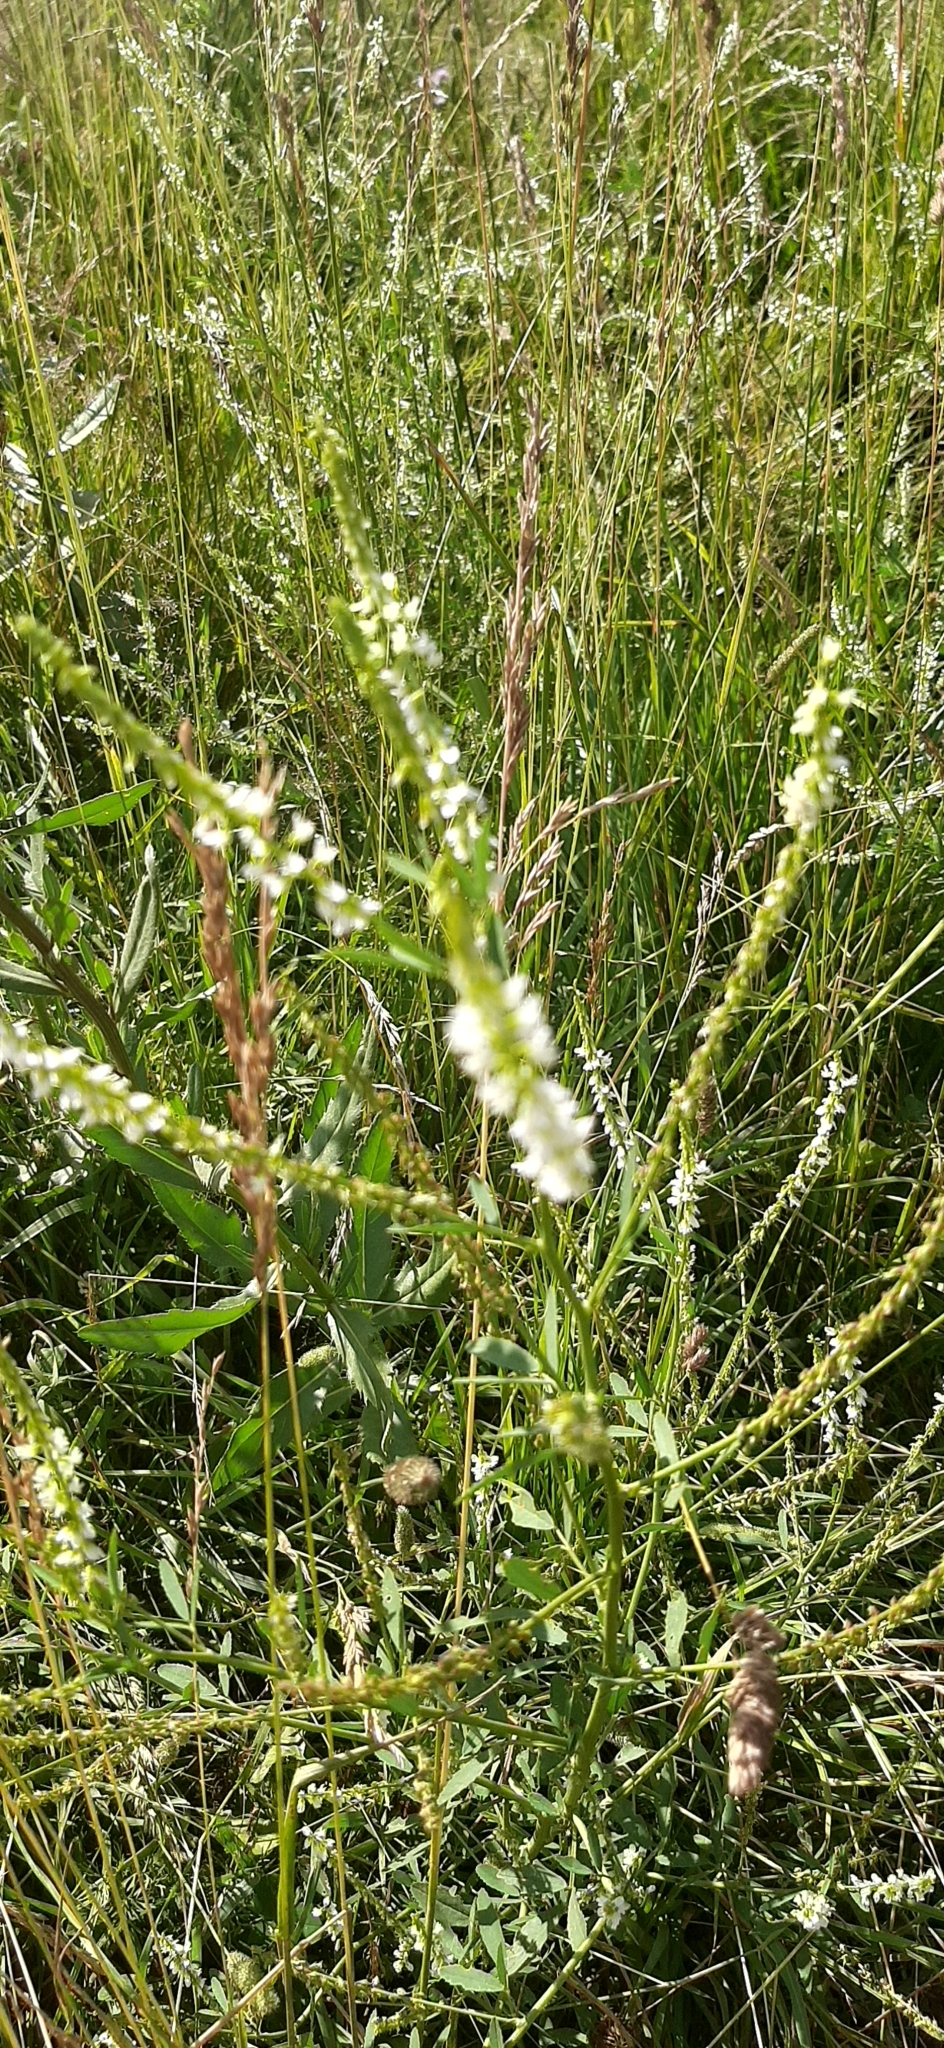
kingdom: Plantae
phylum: Tracheophyta
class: Magnoliopsida
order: Fabales
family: Fabaceae
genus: Melilotus
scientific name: Melilotus albus
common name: White melilot
